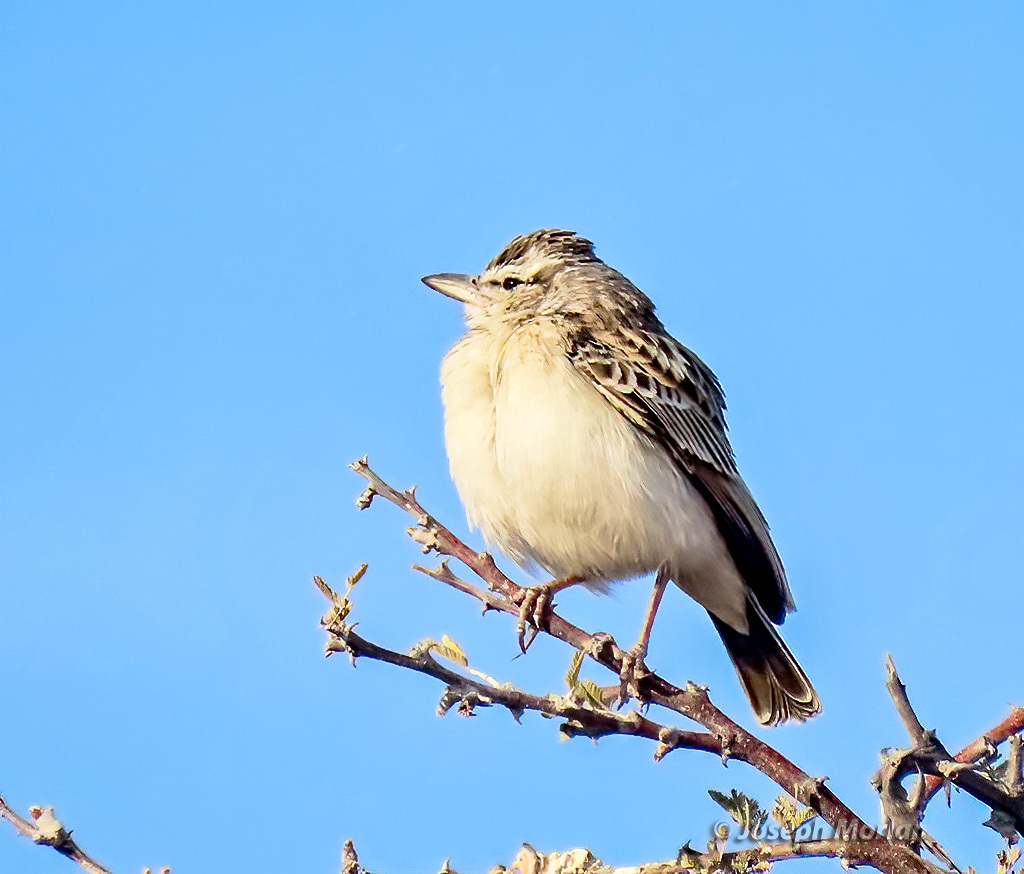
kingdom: Animalia
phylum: Chordata
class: Aves
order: Passeriformes
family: Alaudidae
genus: Calendulauda
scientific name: Calendulauda sabota
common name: Sabota lark
